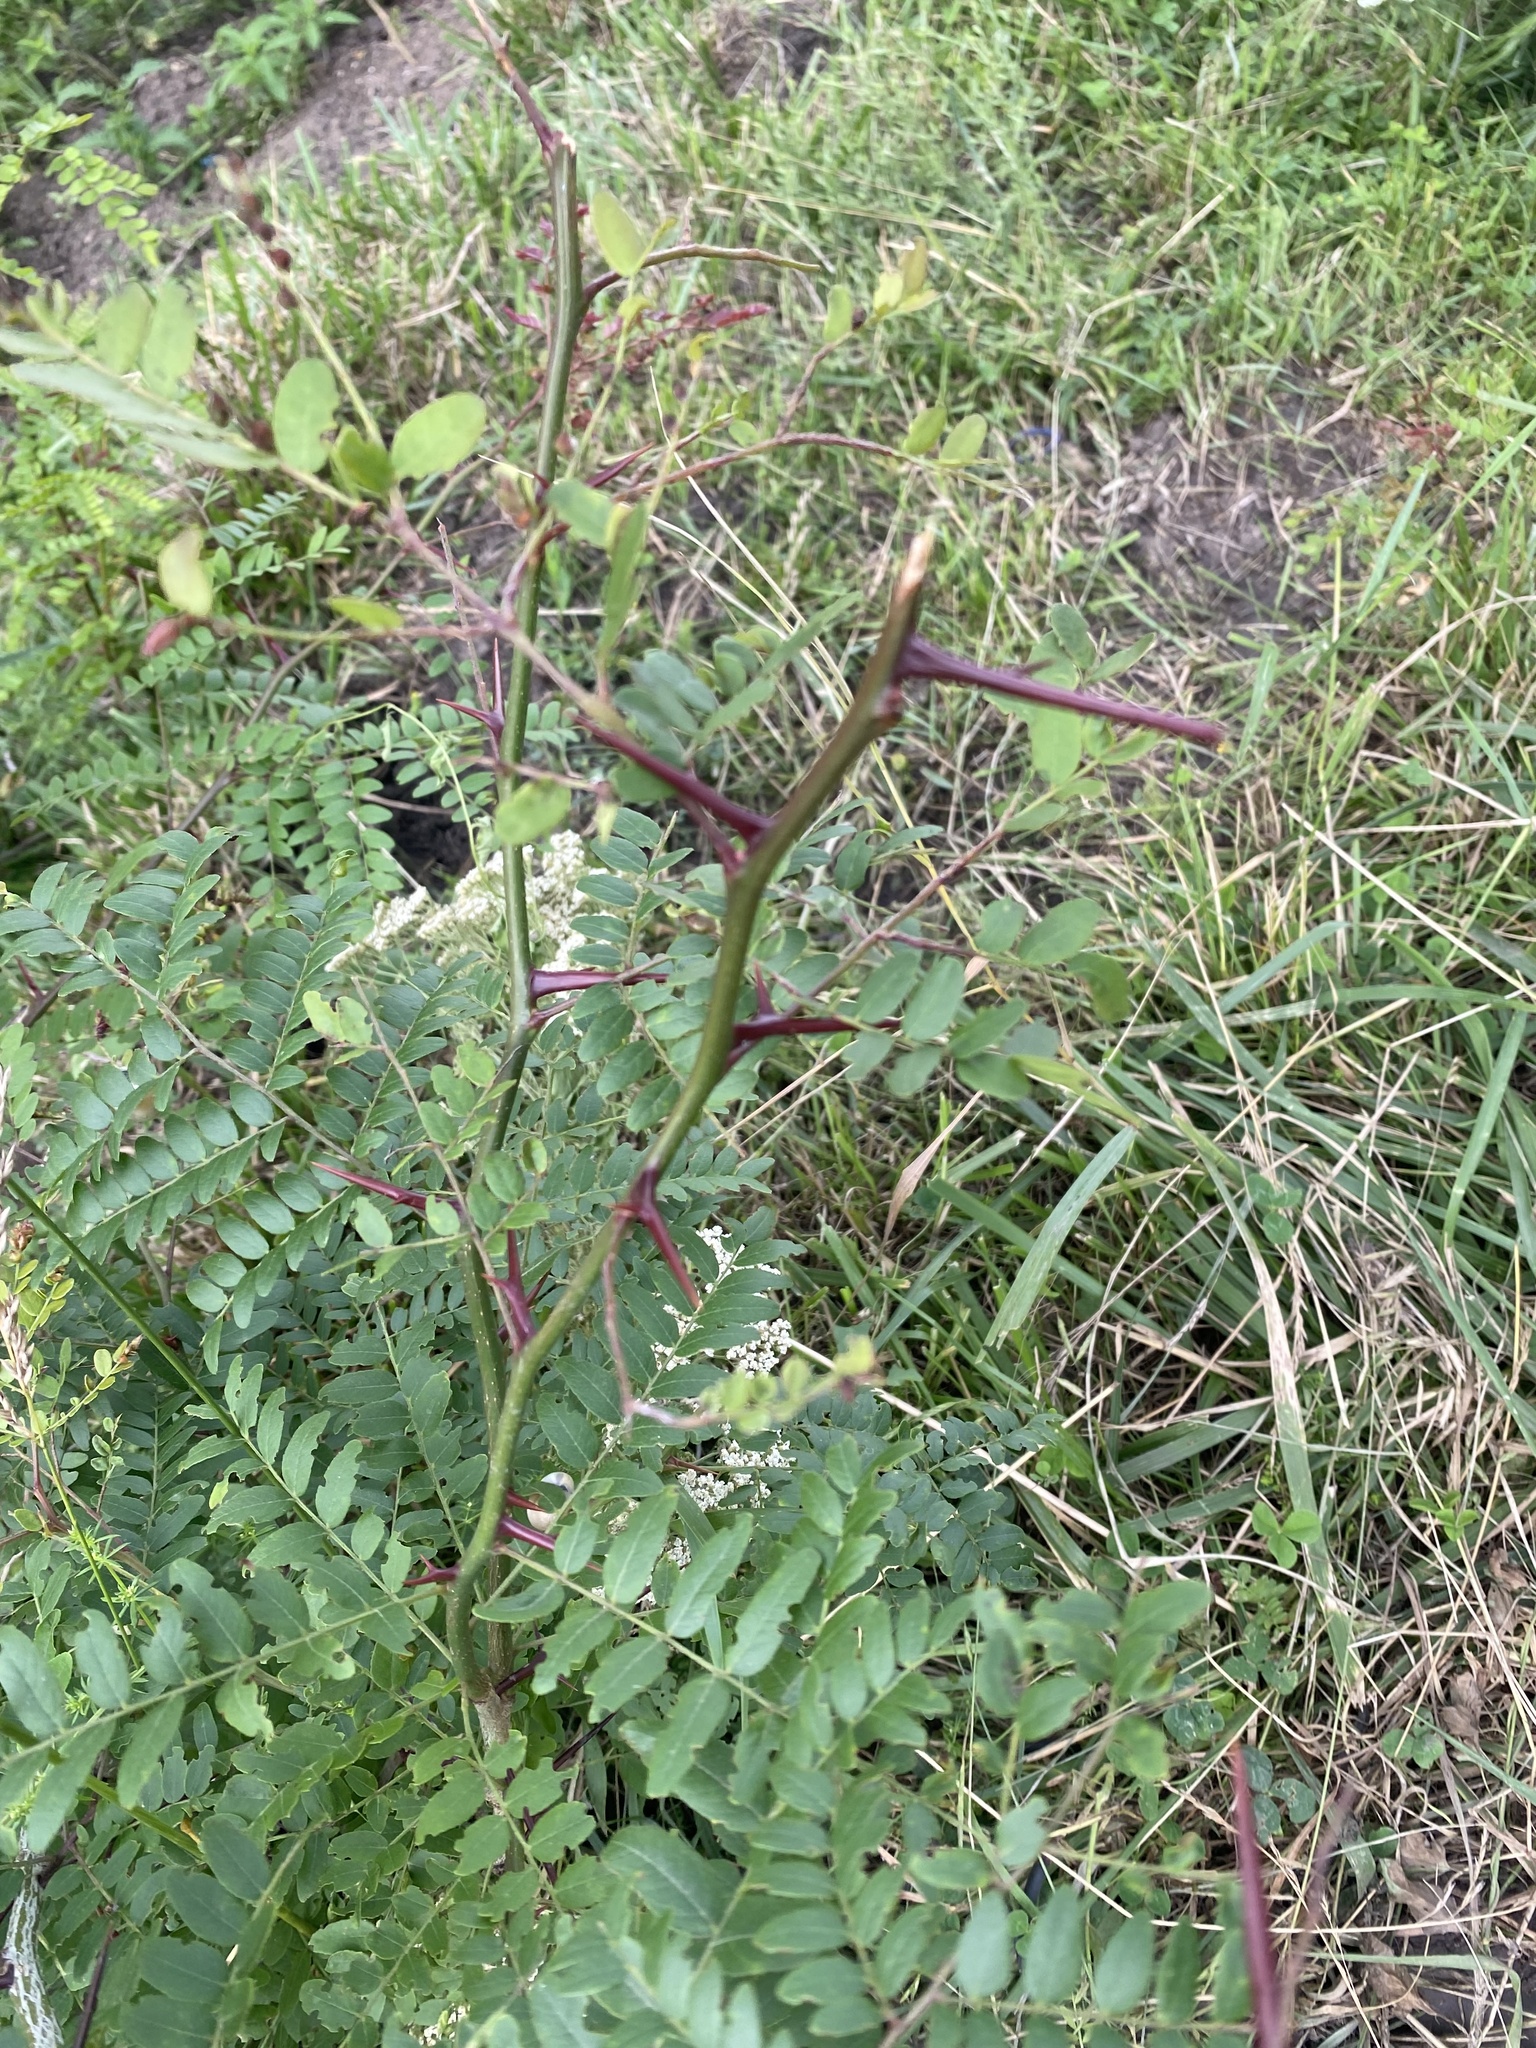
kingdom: Plantae
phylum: Tracheophyta
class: Magnoliopsida
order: Fabales
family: Fabaceae
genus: Gleditsia
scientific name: Gleditsia triacanthos
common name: Common honeylocust
